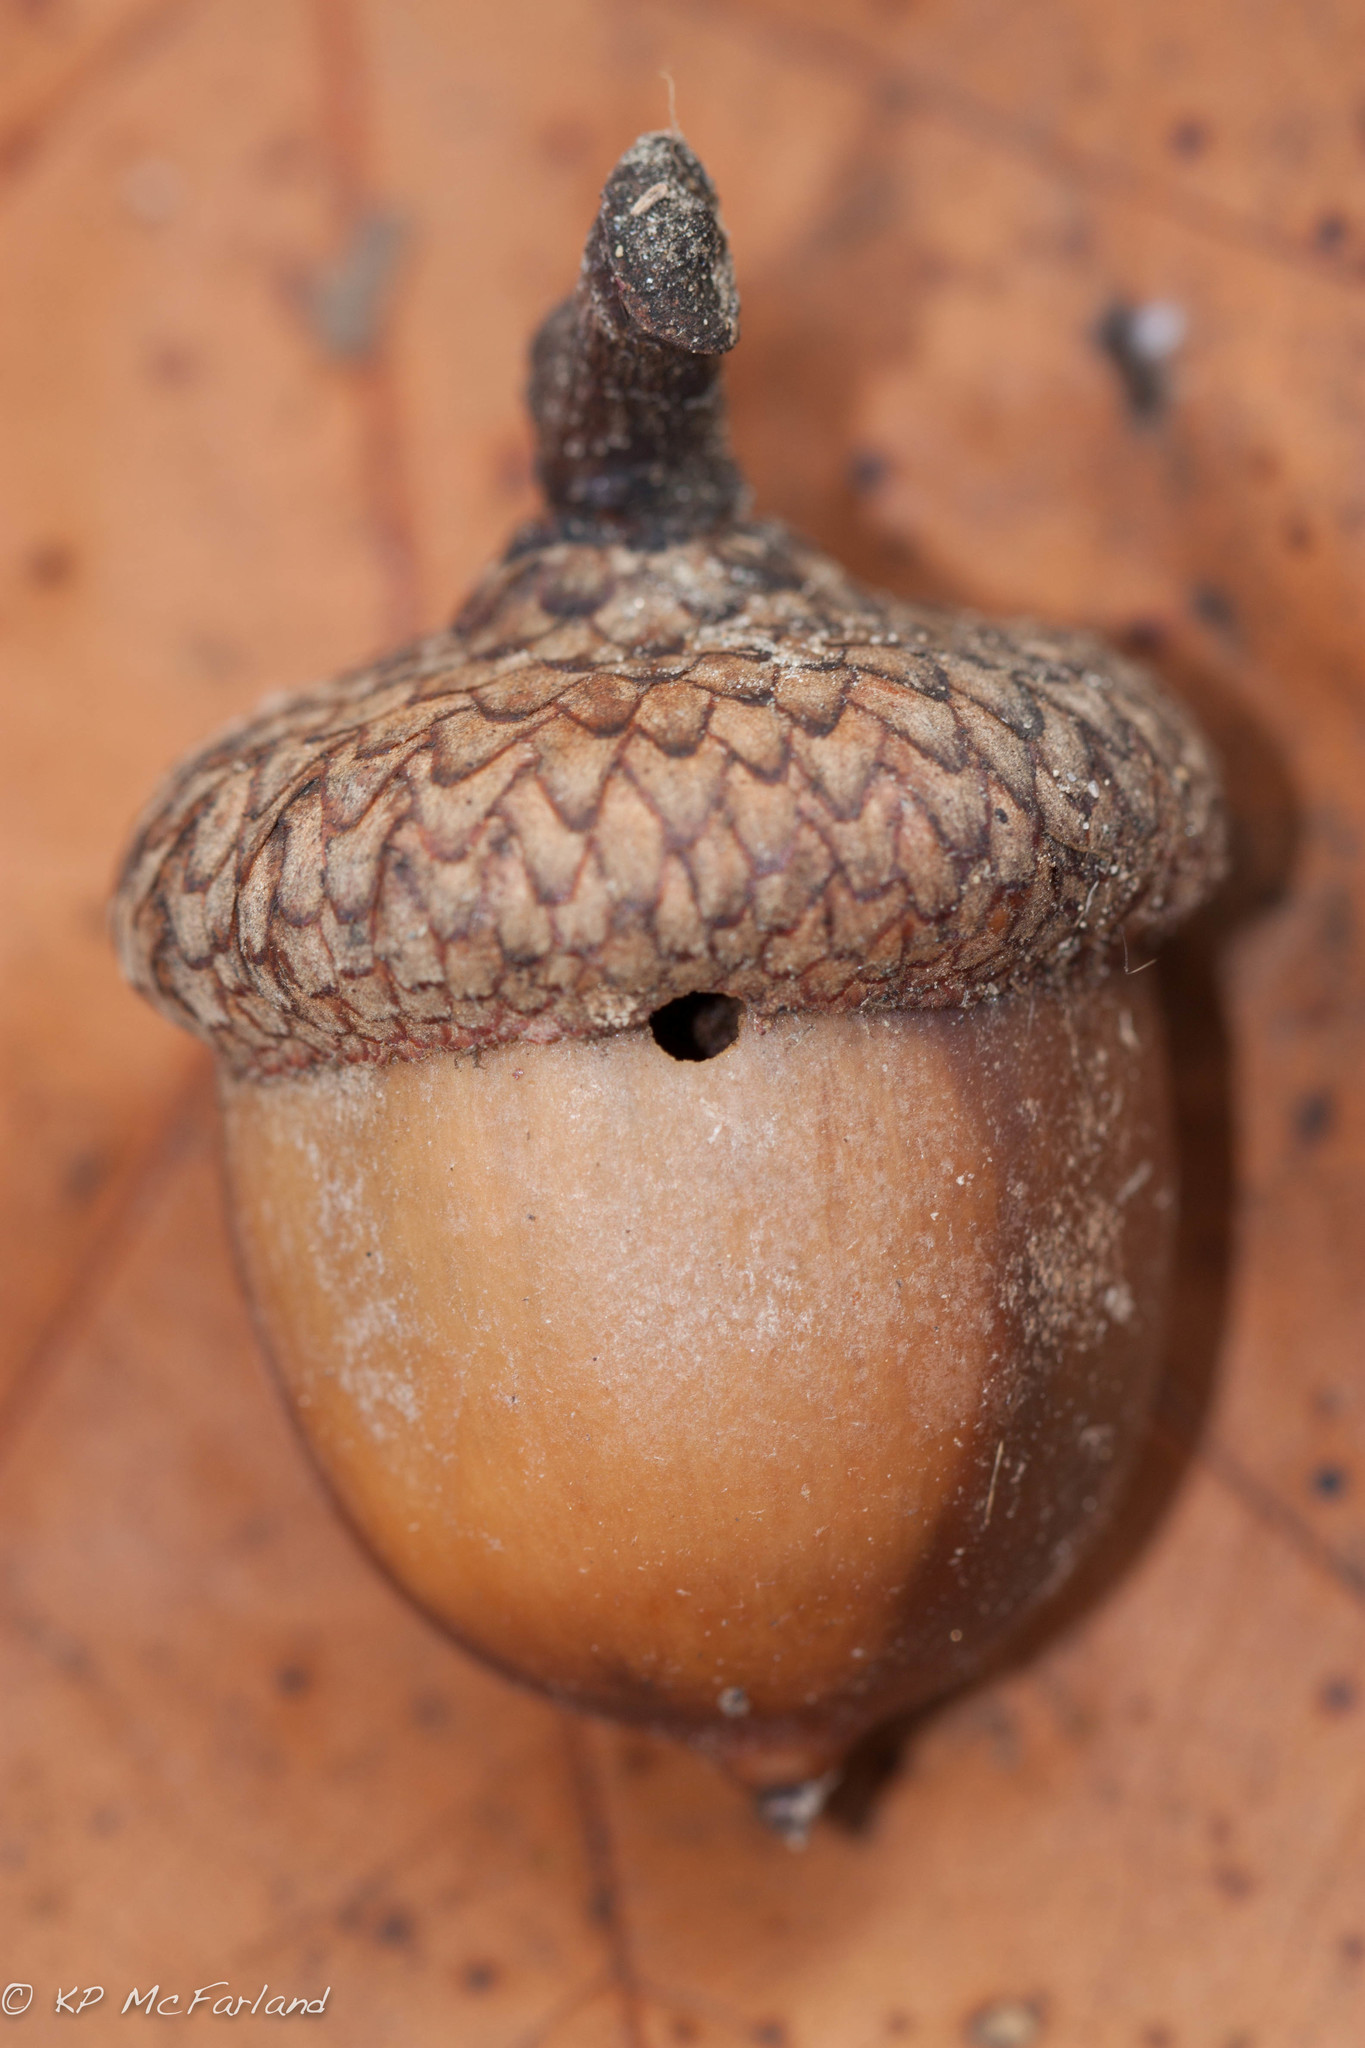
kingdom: Plantae
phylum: Tracheophyta
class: Magnoliopsida
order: Fagales
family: Fagaceae
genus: Quercus
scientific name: Quercus rubra
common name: Red oak
